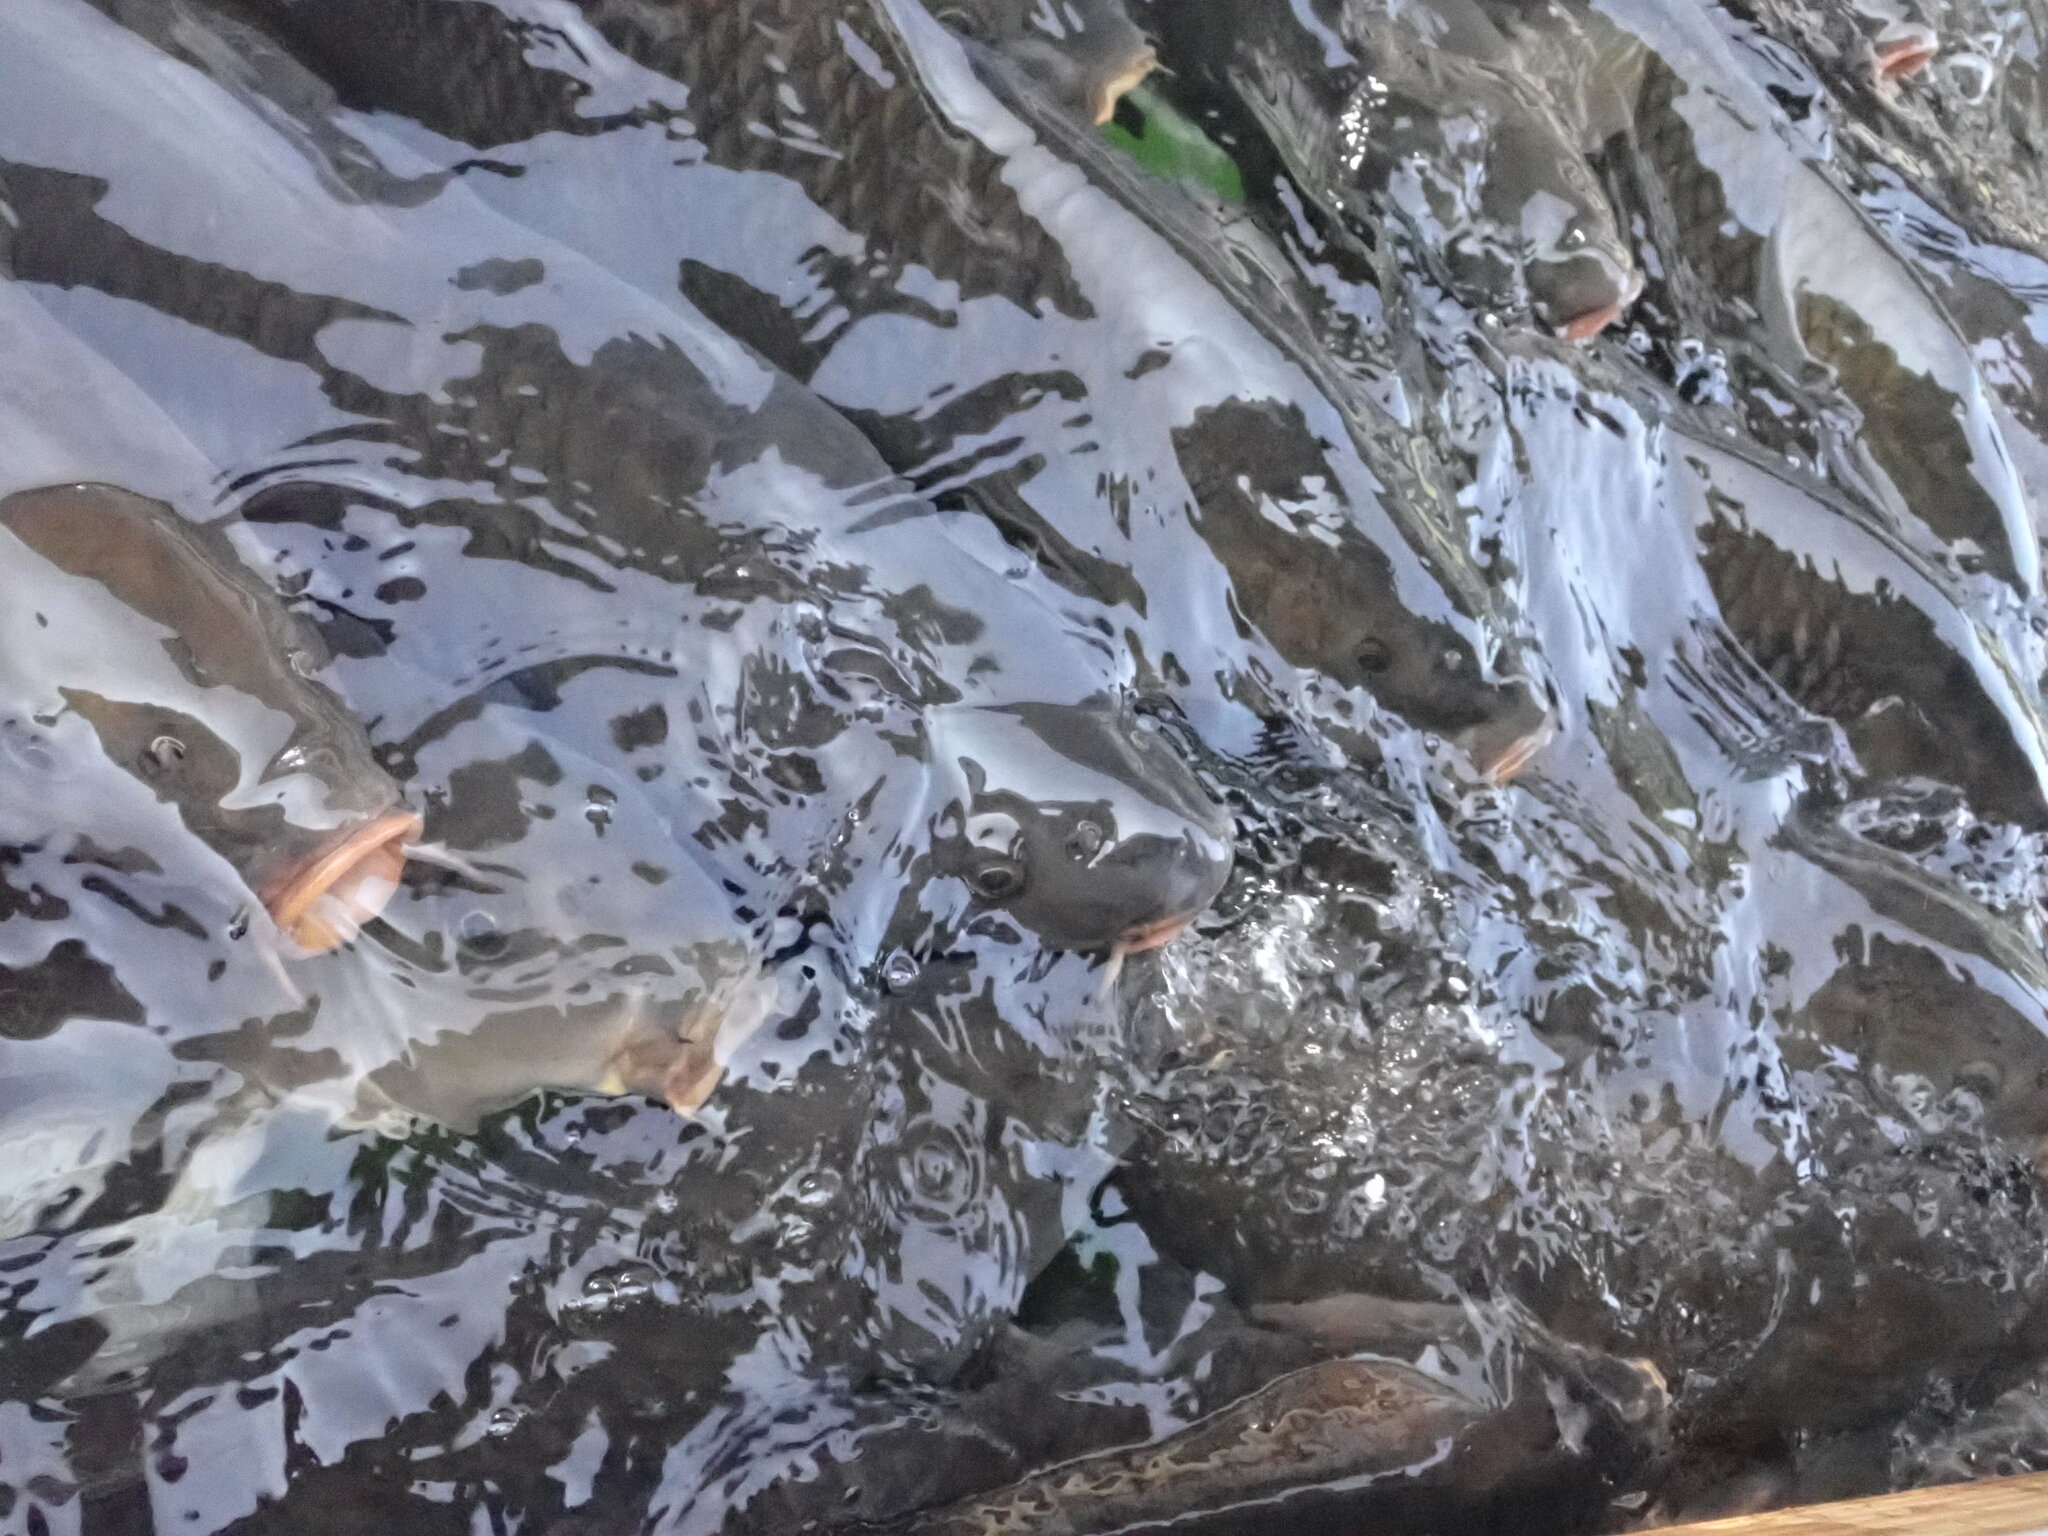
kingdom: Animalia
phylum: Chordata
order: Cypriniformes
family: Cyprinidae
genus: Cyprinus
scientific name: Cyprinus carpio
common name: Common carp
